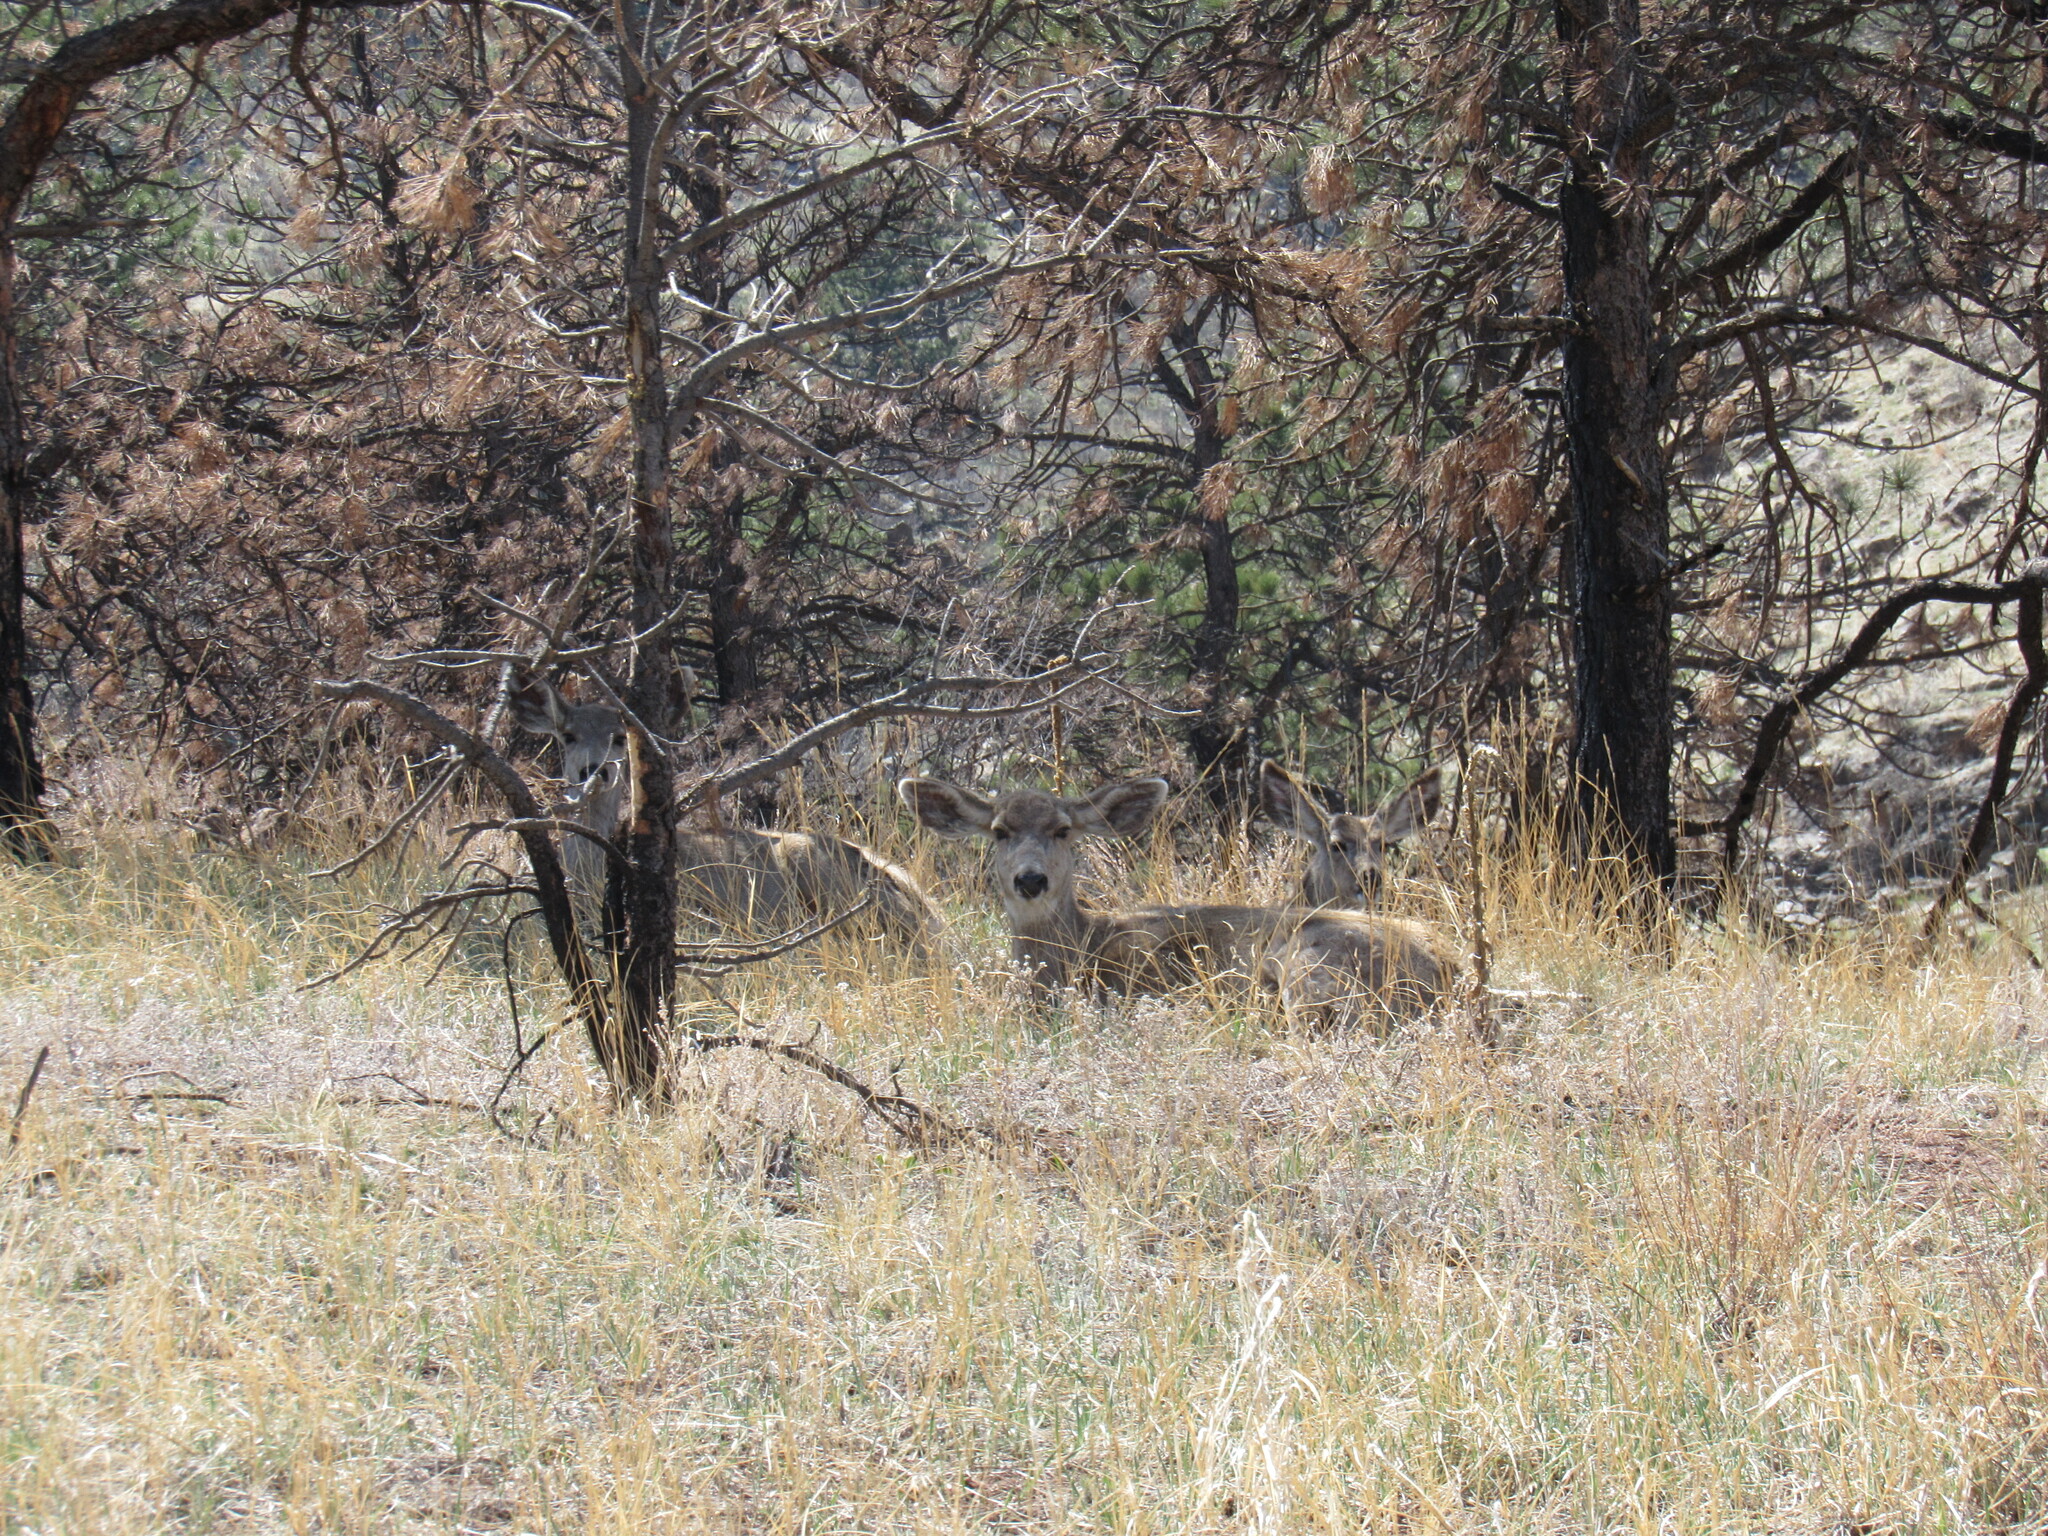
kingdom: Animalia
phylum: Chordata
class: Mammalia
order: Artiodactyla
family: Cervidae
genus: Odocoileus
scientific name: Odocoileus hemionus
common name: Mule deer
